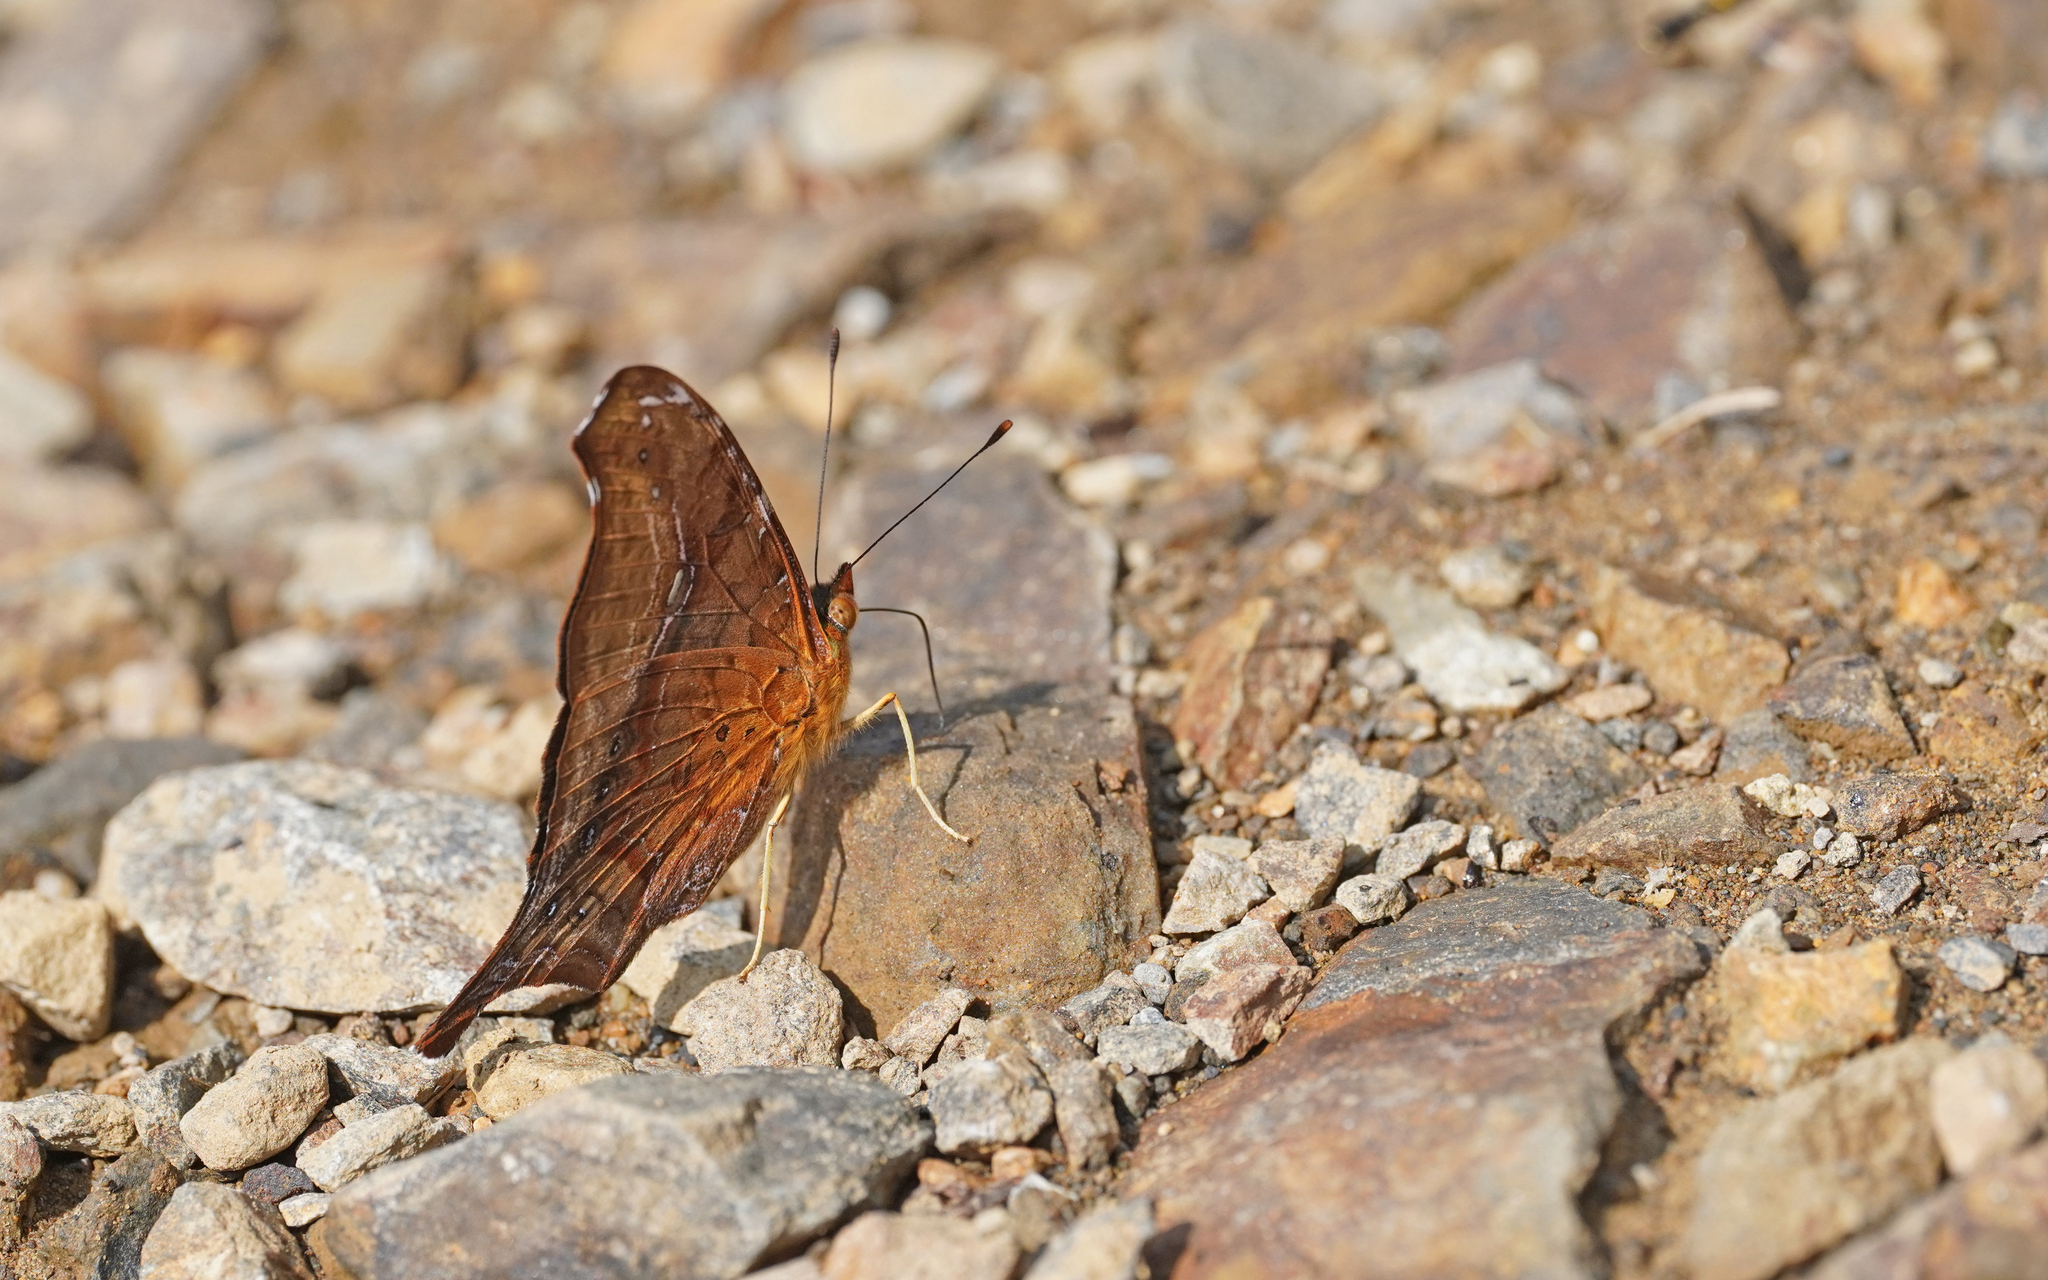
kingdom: Animalia
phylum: Arthropoda
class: Insecta
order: Lepidoptera
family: Nymphalidae
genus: Hypanartia
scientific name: Hypanartia dione
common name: Banded mapwing
